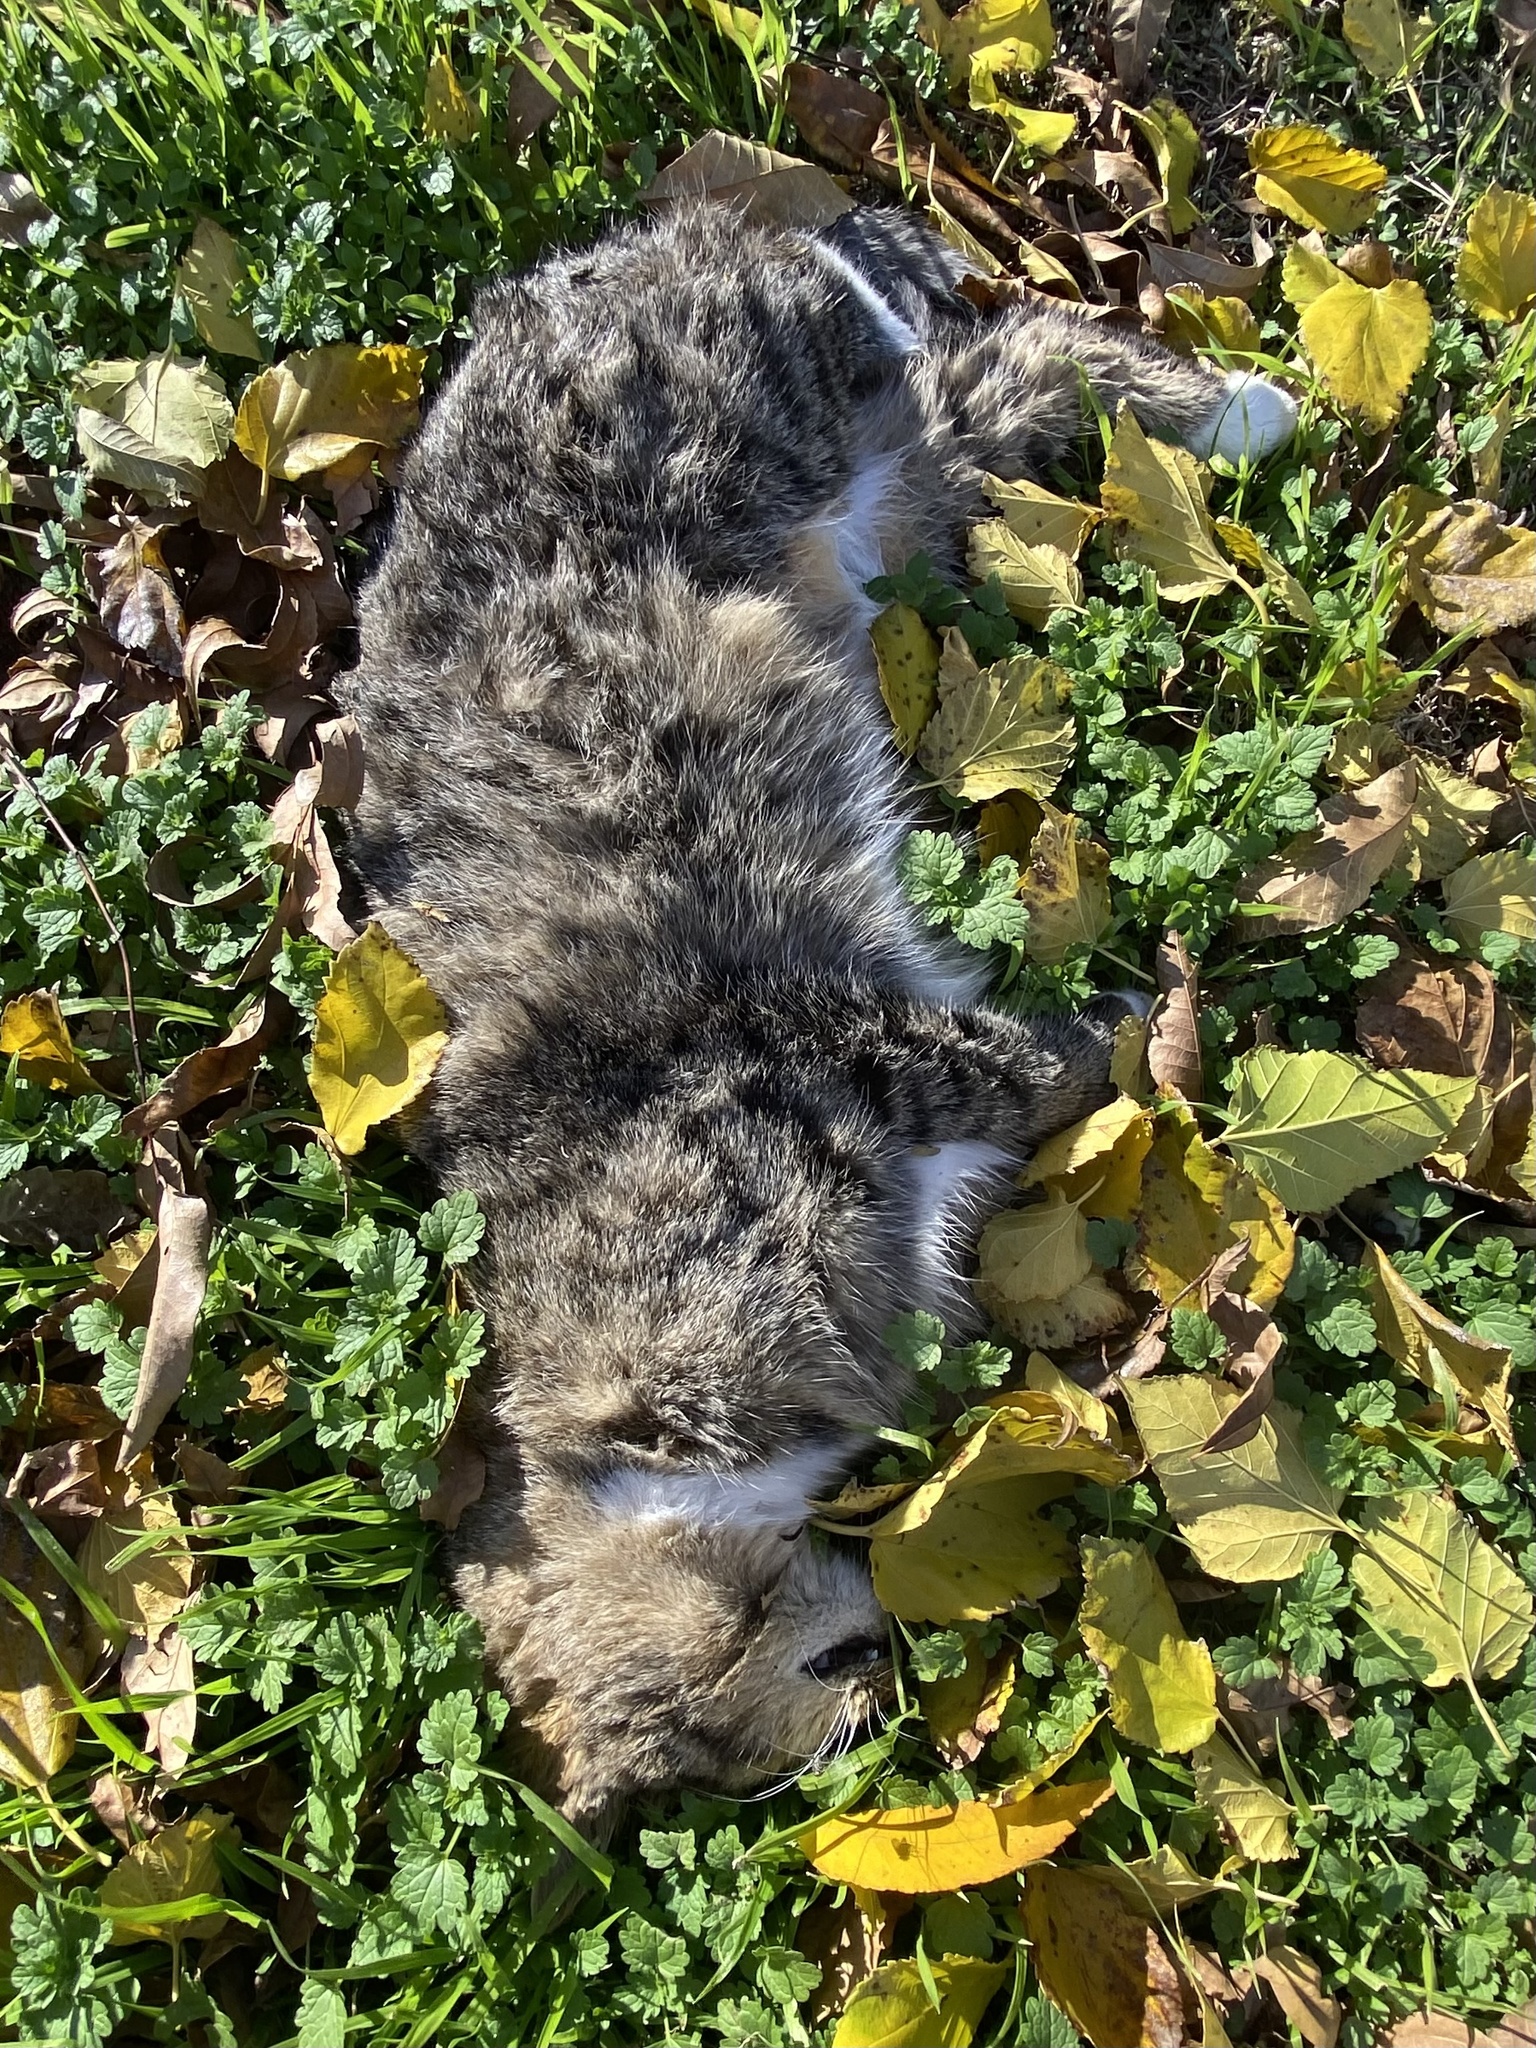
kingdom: Animalia
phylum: Chordata
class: Mammalia
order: Carnivora
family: Felidae
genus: Felis
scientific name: Felis catus
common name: Domestic cat
